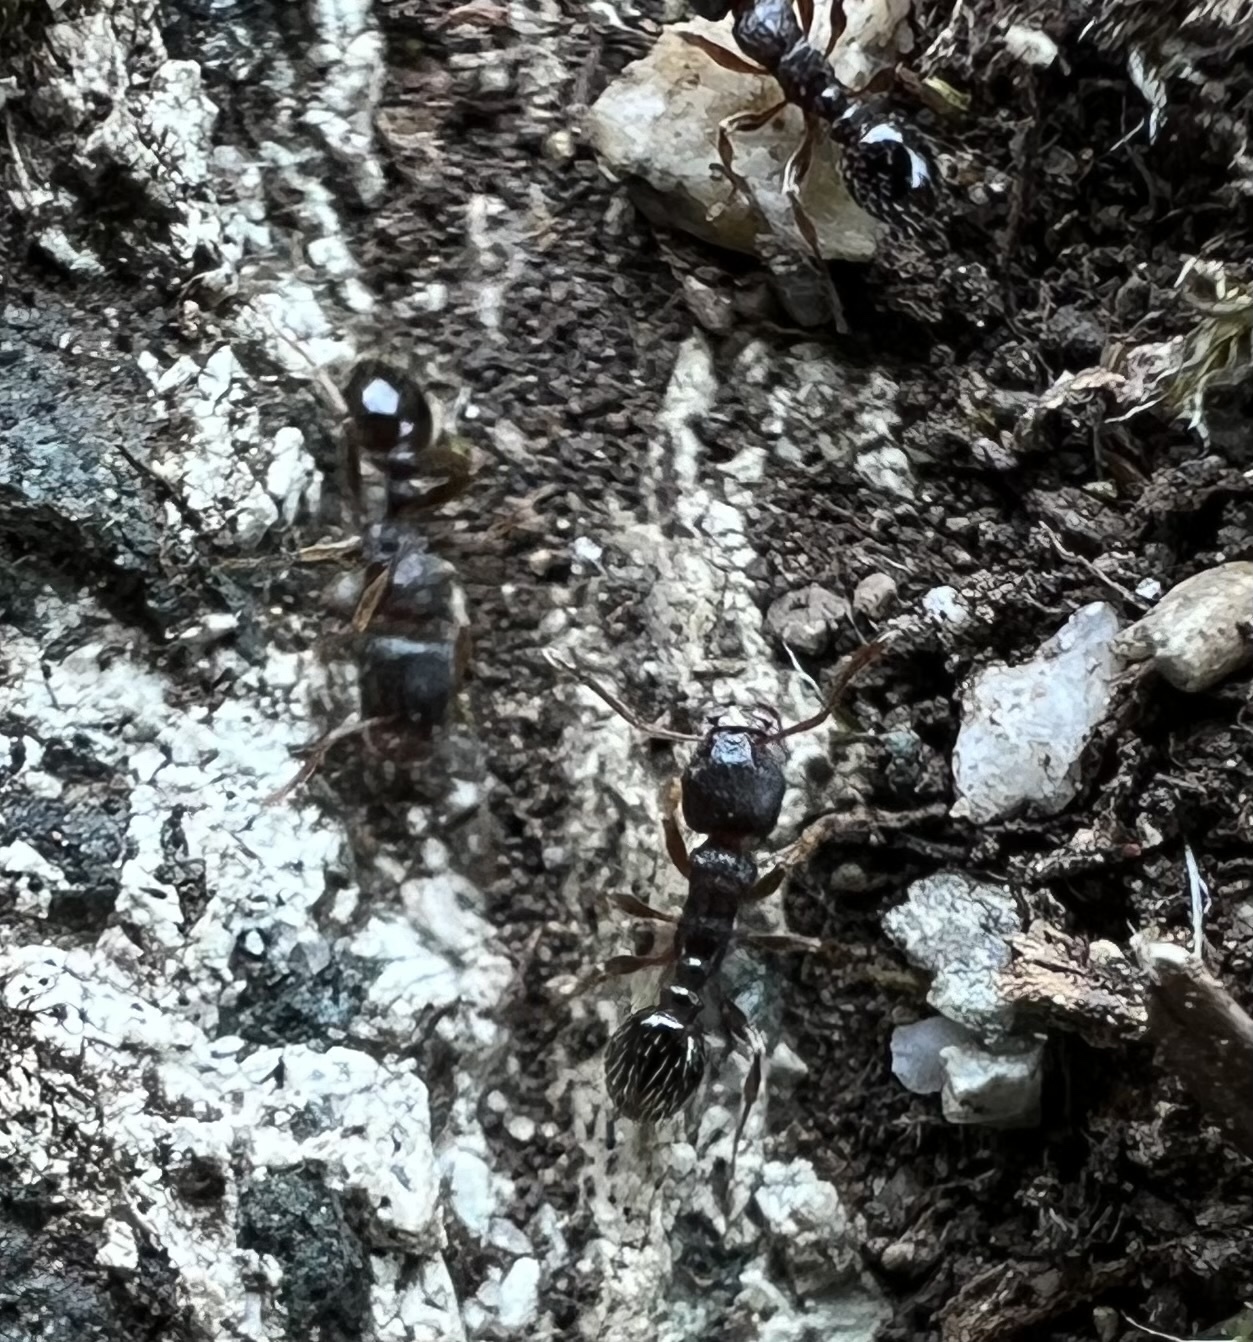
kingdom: Animalia
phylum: Arthropoda
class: Insecta
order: Hymenoptera
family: Formicidae
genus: Tetramorium
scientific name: Tetramorium immigrans
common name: Pavement ant
